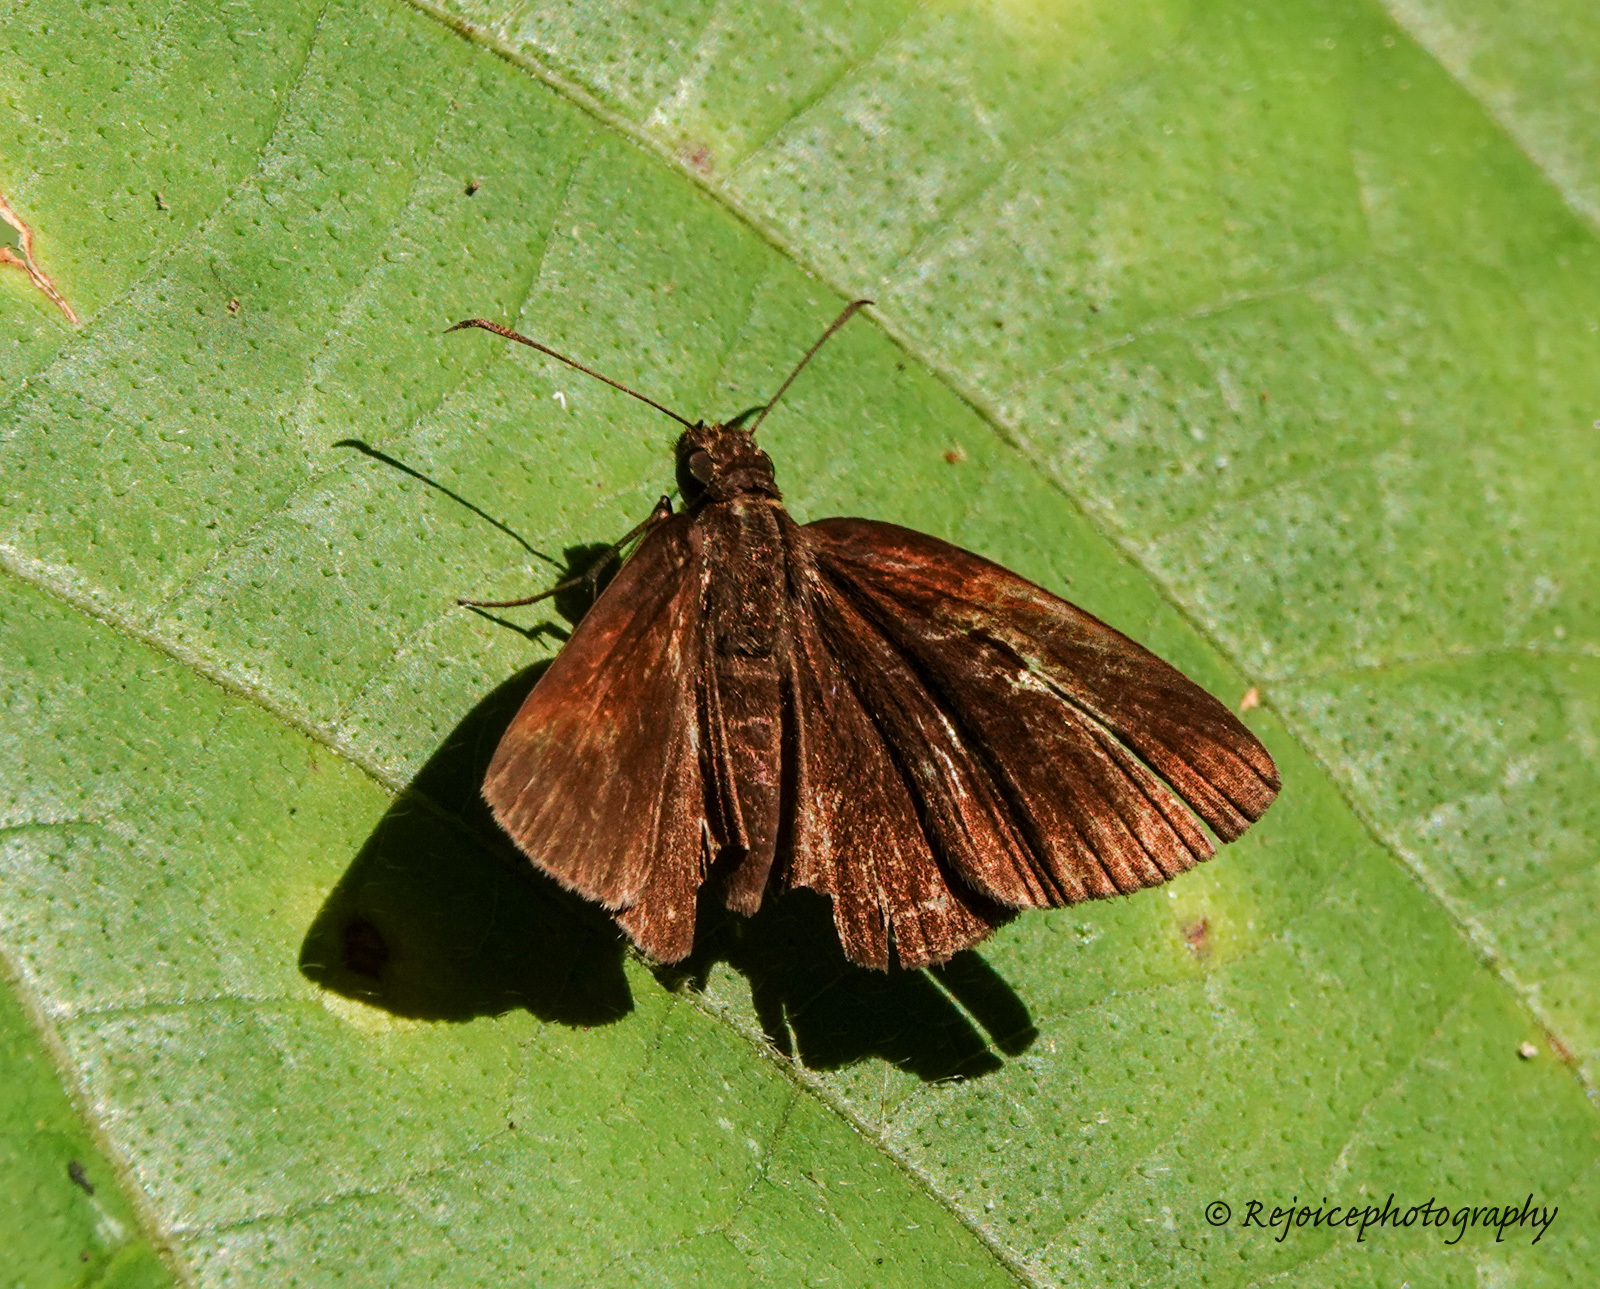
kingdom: Animalia
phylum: Arthropoda
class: Insecta
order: Lepidoptera
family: Hesperiidae
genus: Koruthaialos
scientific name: Koruthaialos butleri
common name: Dark velvet bob
